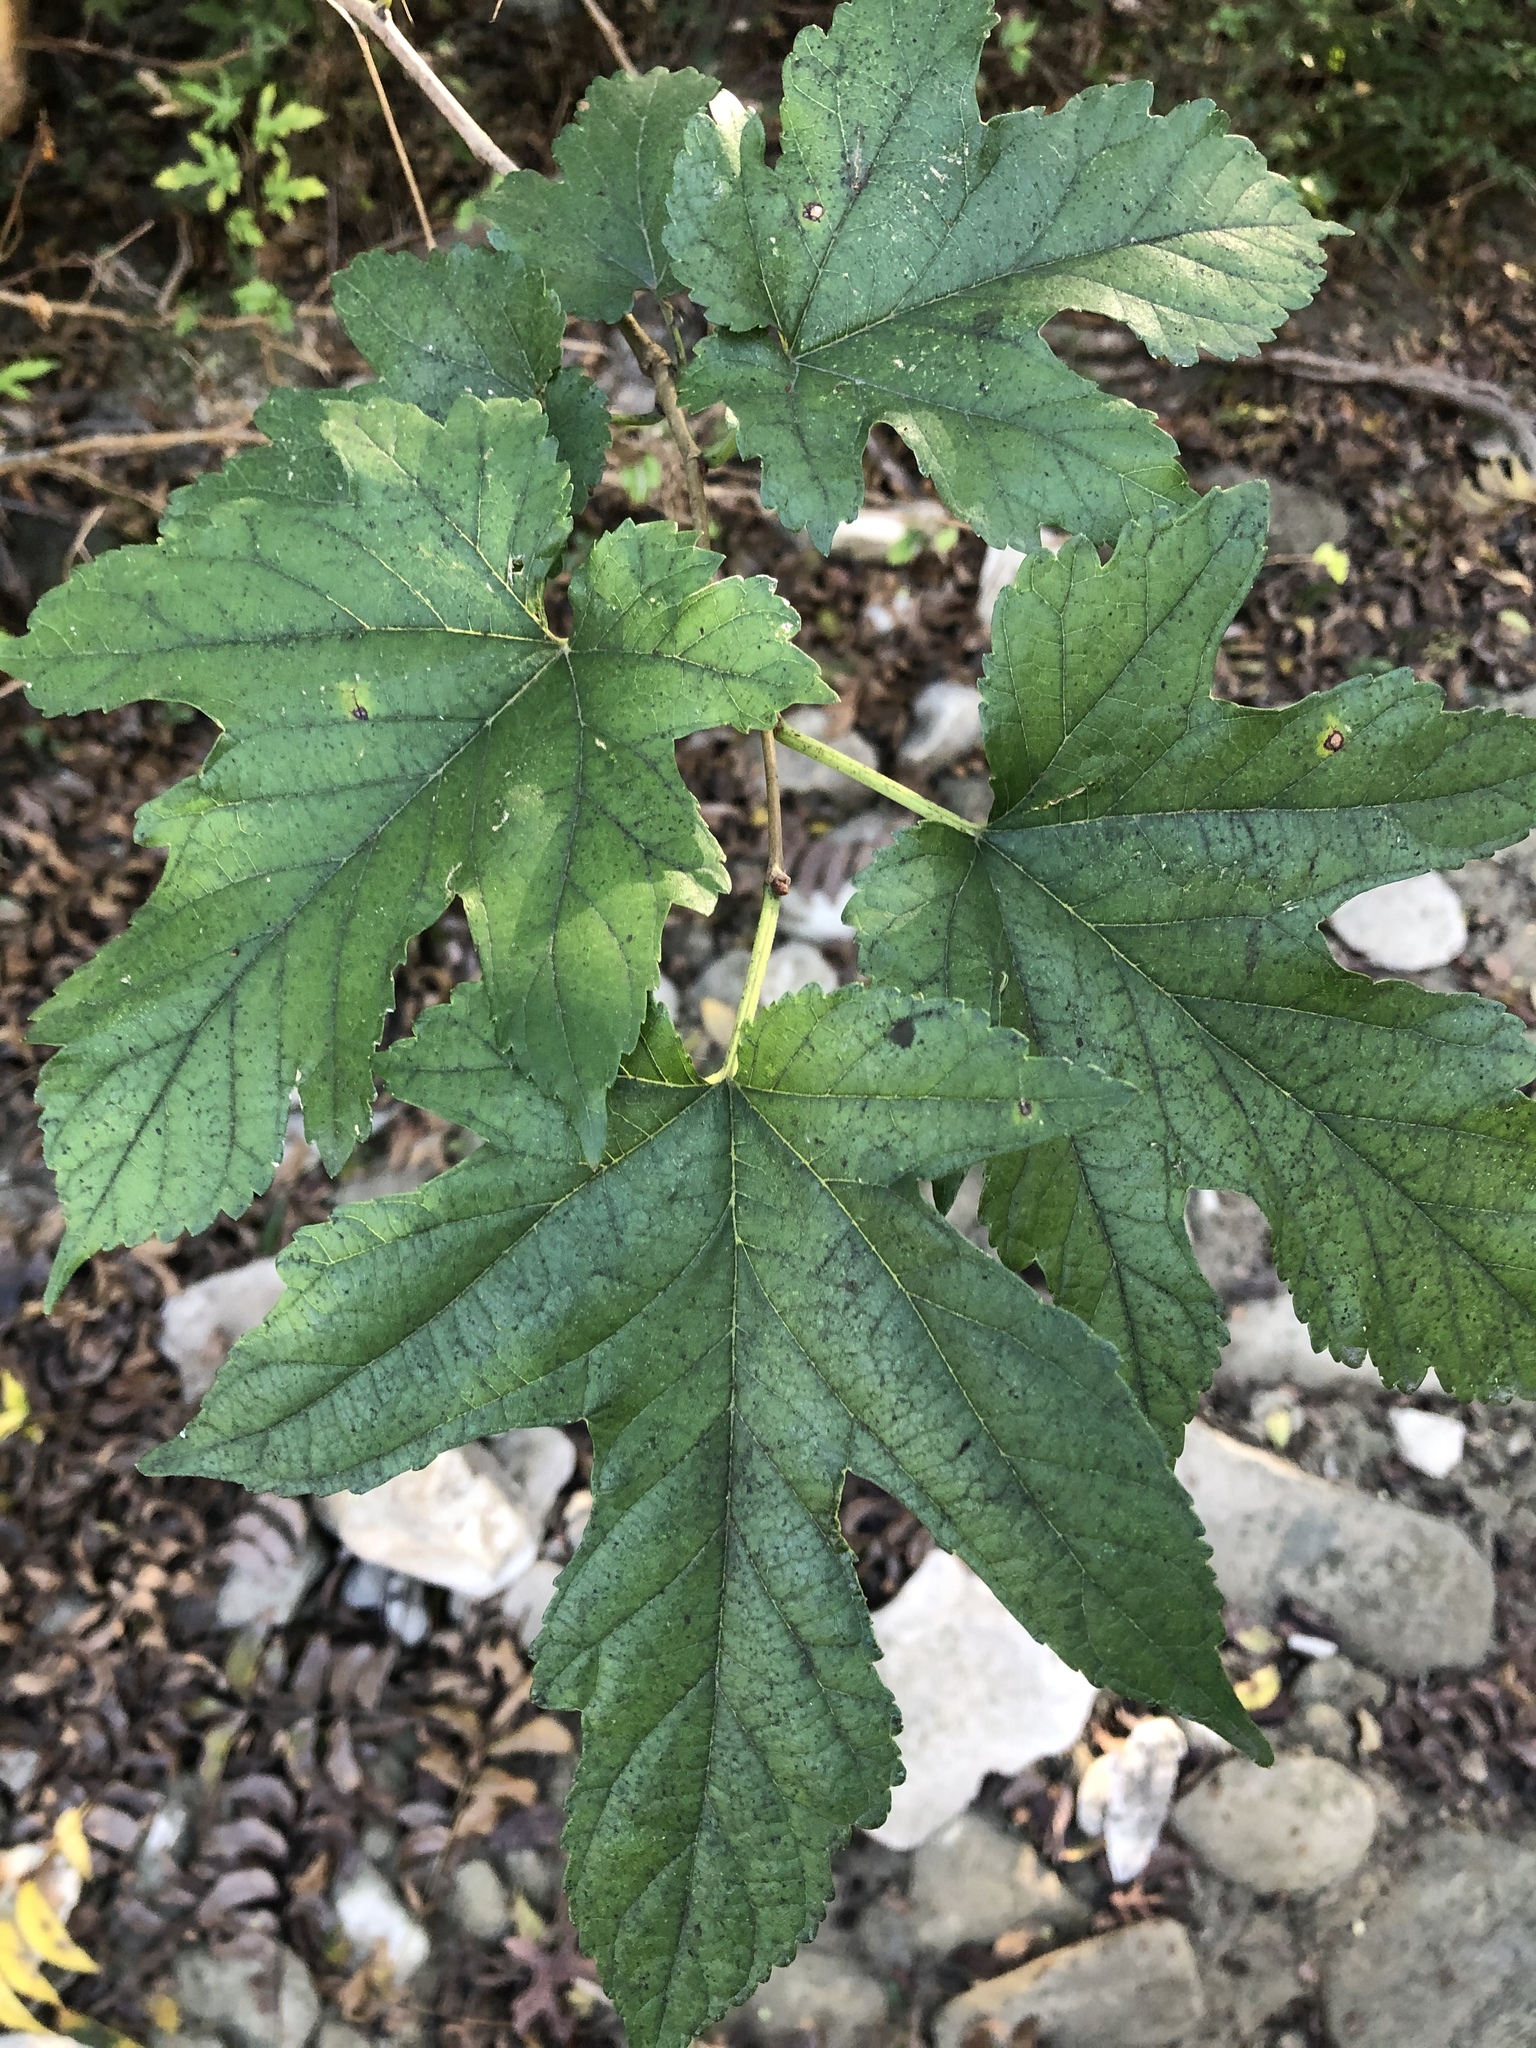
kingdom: Plantae
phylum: Tracheophyta
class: Magnoliopsida
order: Rosales
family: Moraceae
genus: Morus
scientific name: Morus alba
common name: White mulberry
